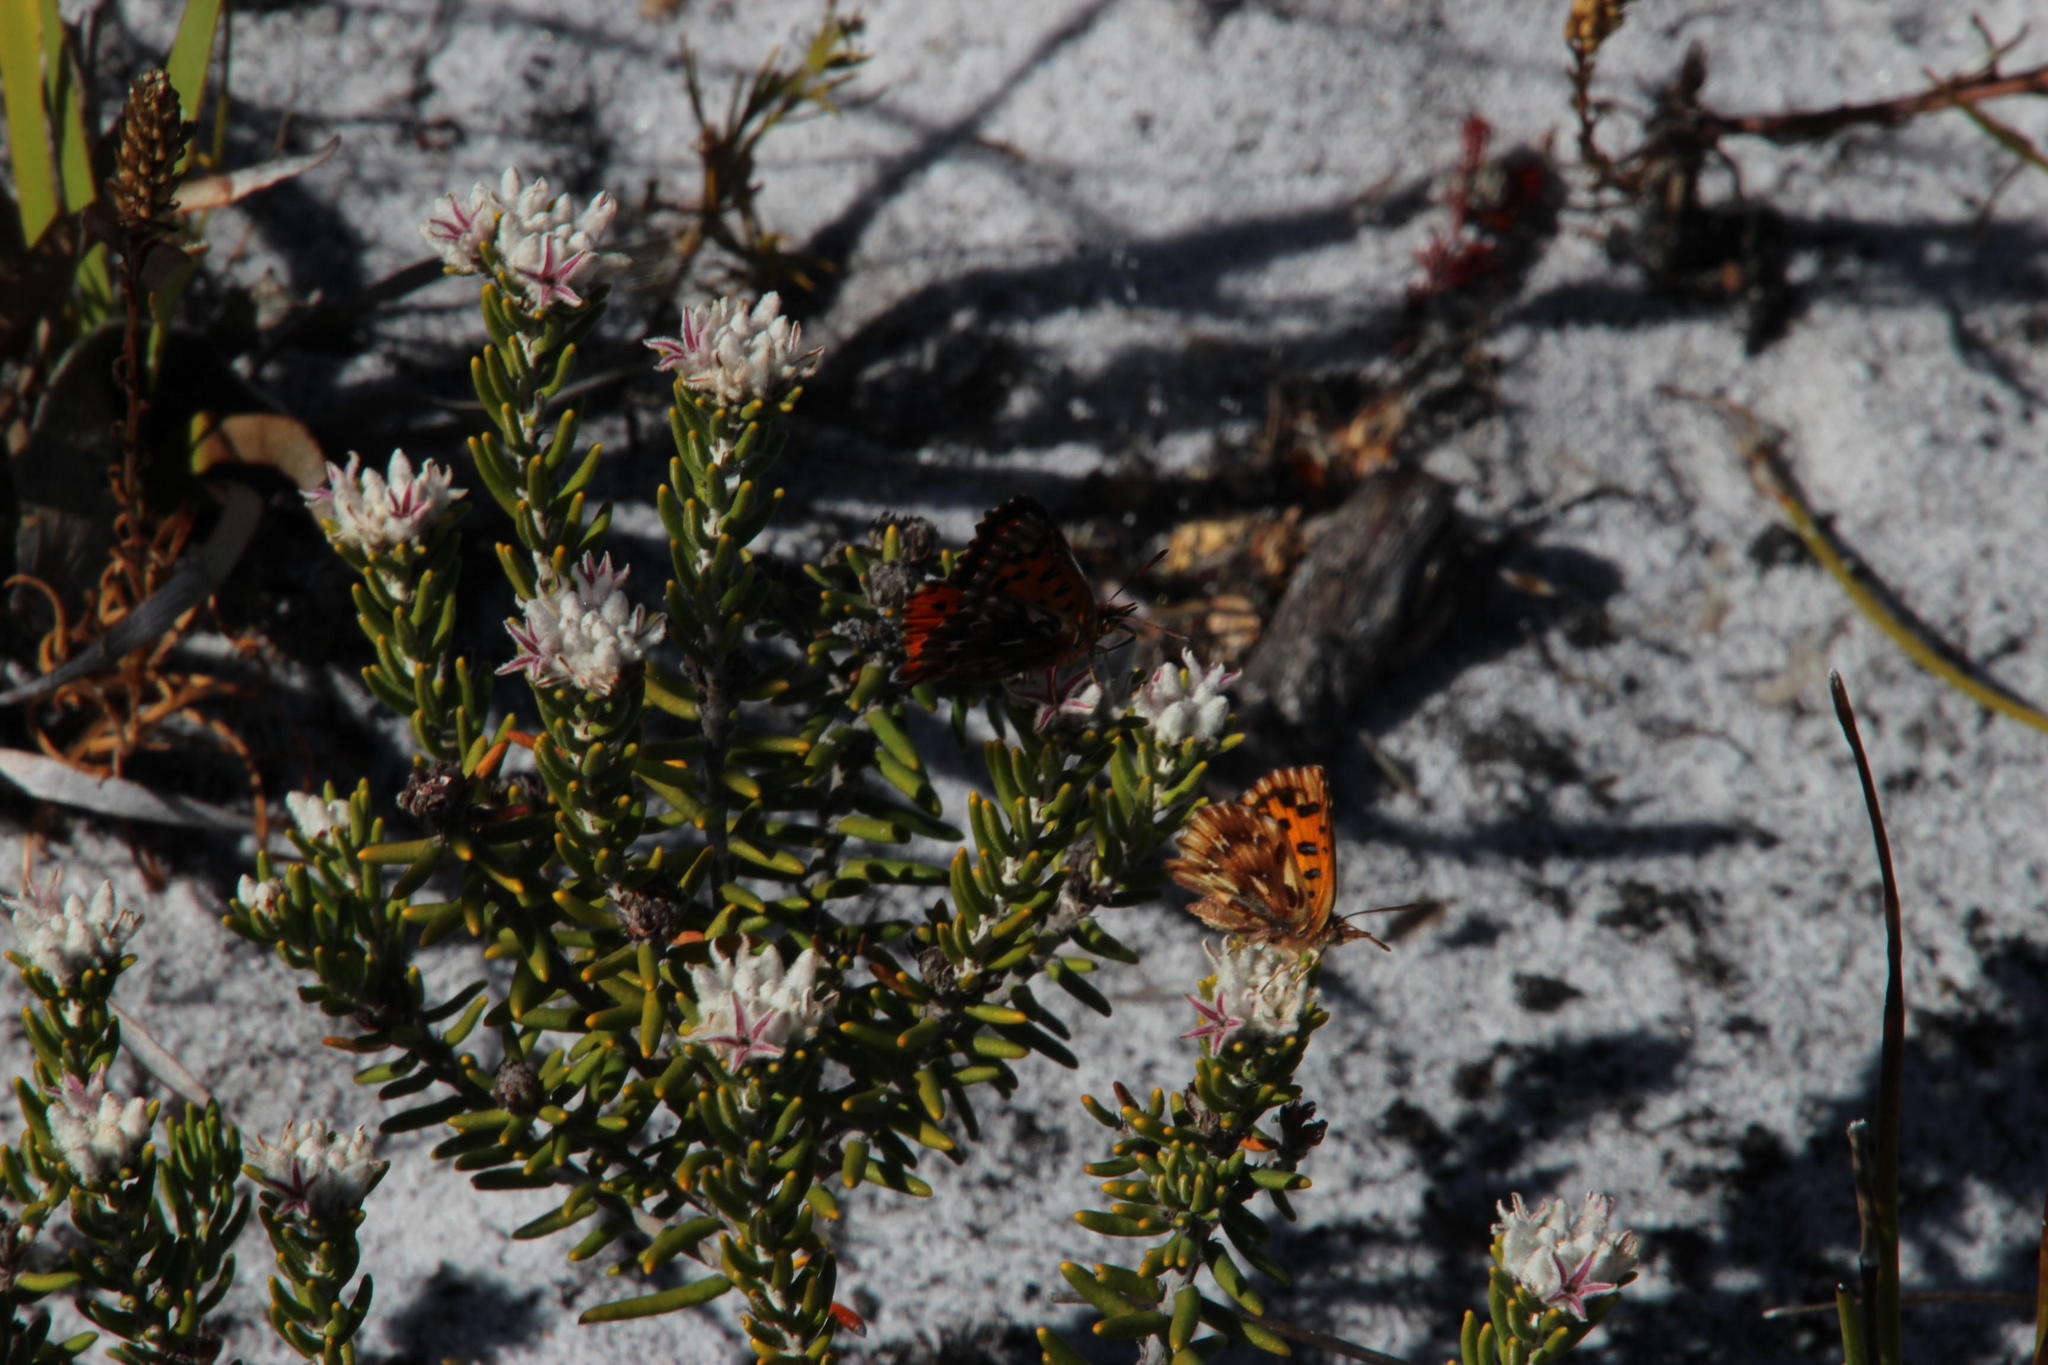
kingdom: Animalia
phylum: Arthropoda
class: Insecta
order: Lepidoptera
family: Lycaenidae
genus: Chrysoritis
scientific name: Chrysoritis thysbe
